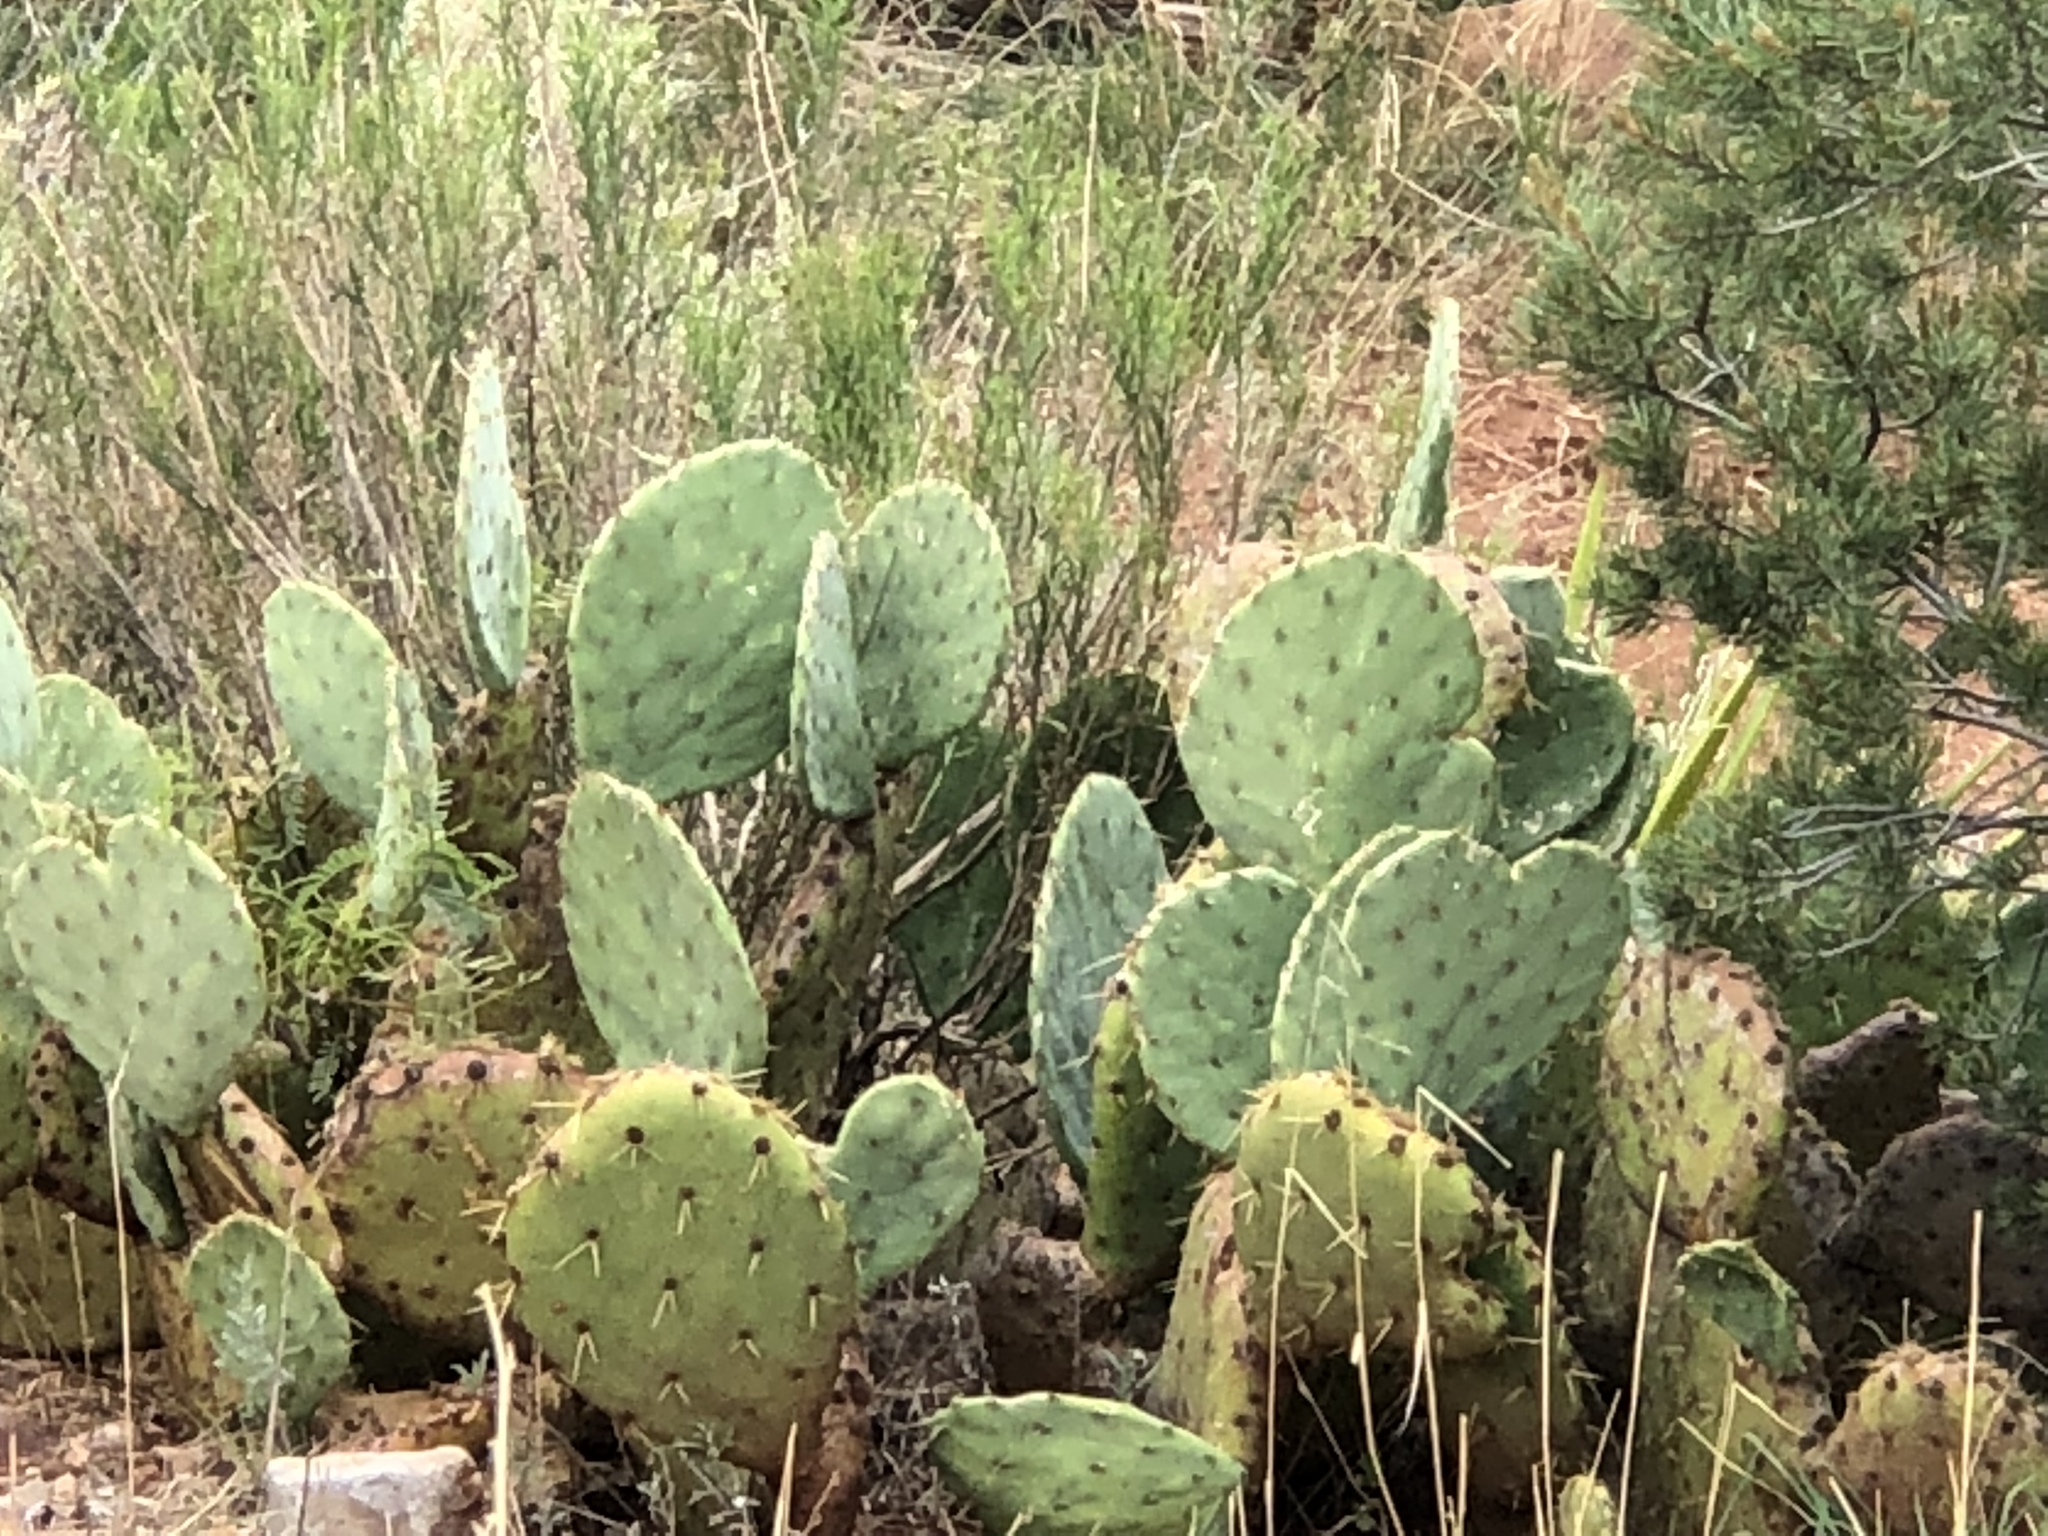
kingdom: Plantae
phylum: Tracheophyta
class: Magnoliopsida
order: Caryophyllales
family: Cactaceae
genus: Opuntia
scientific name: Opuntia orbiculata
